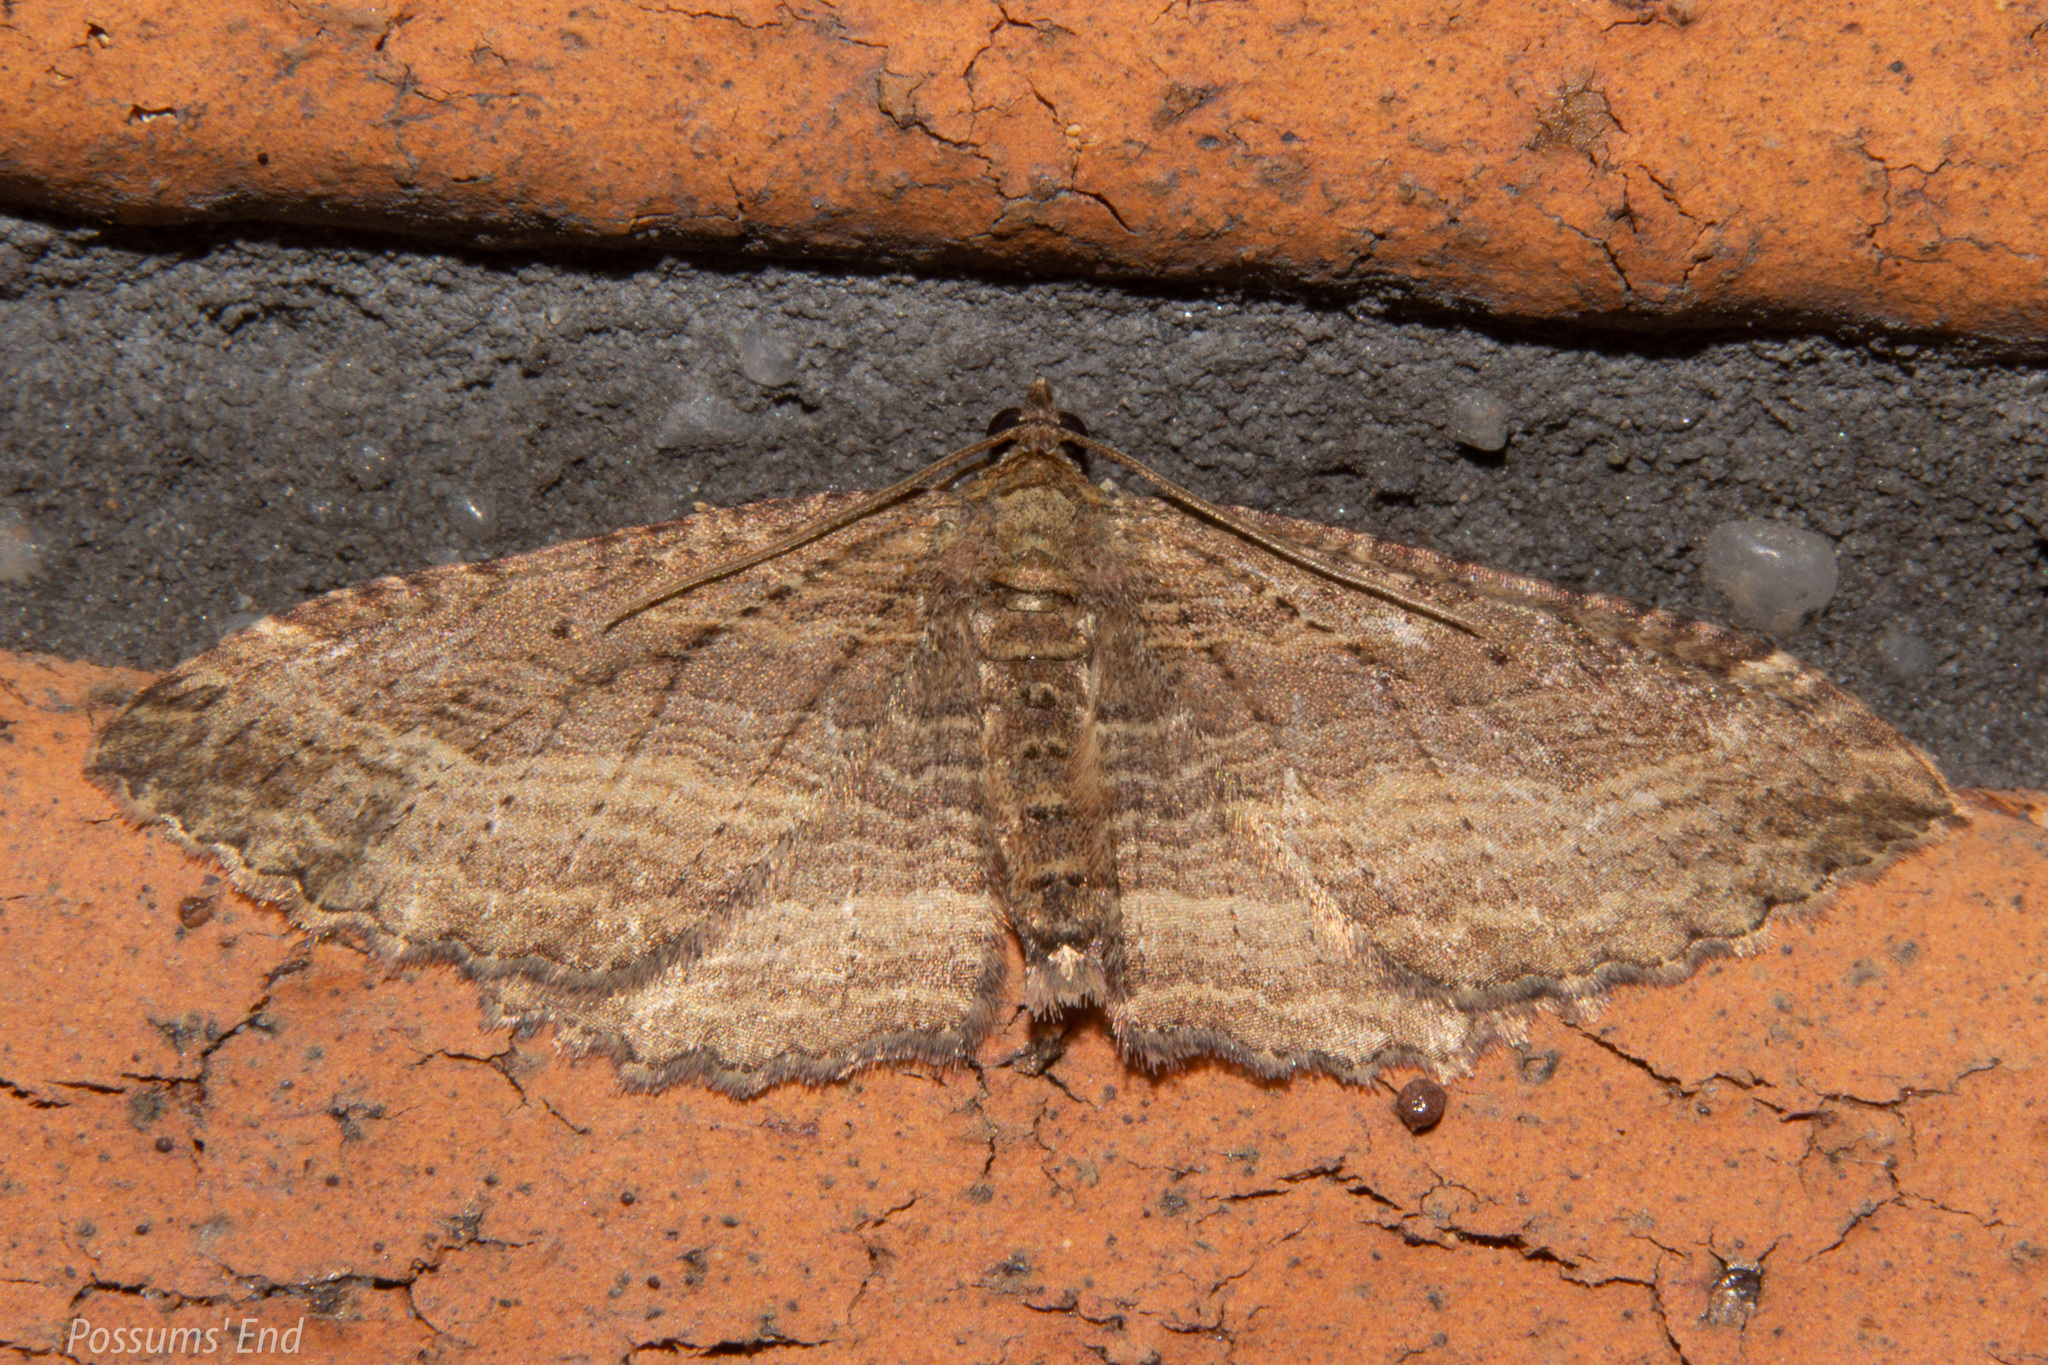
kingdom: Animalia
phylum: Arthropoda
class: Insecta
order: Lepidoptera
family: Geometridae
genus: Austrocidaria
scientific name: Austrocidaria gobiata
